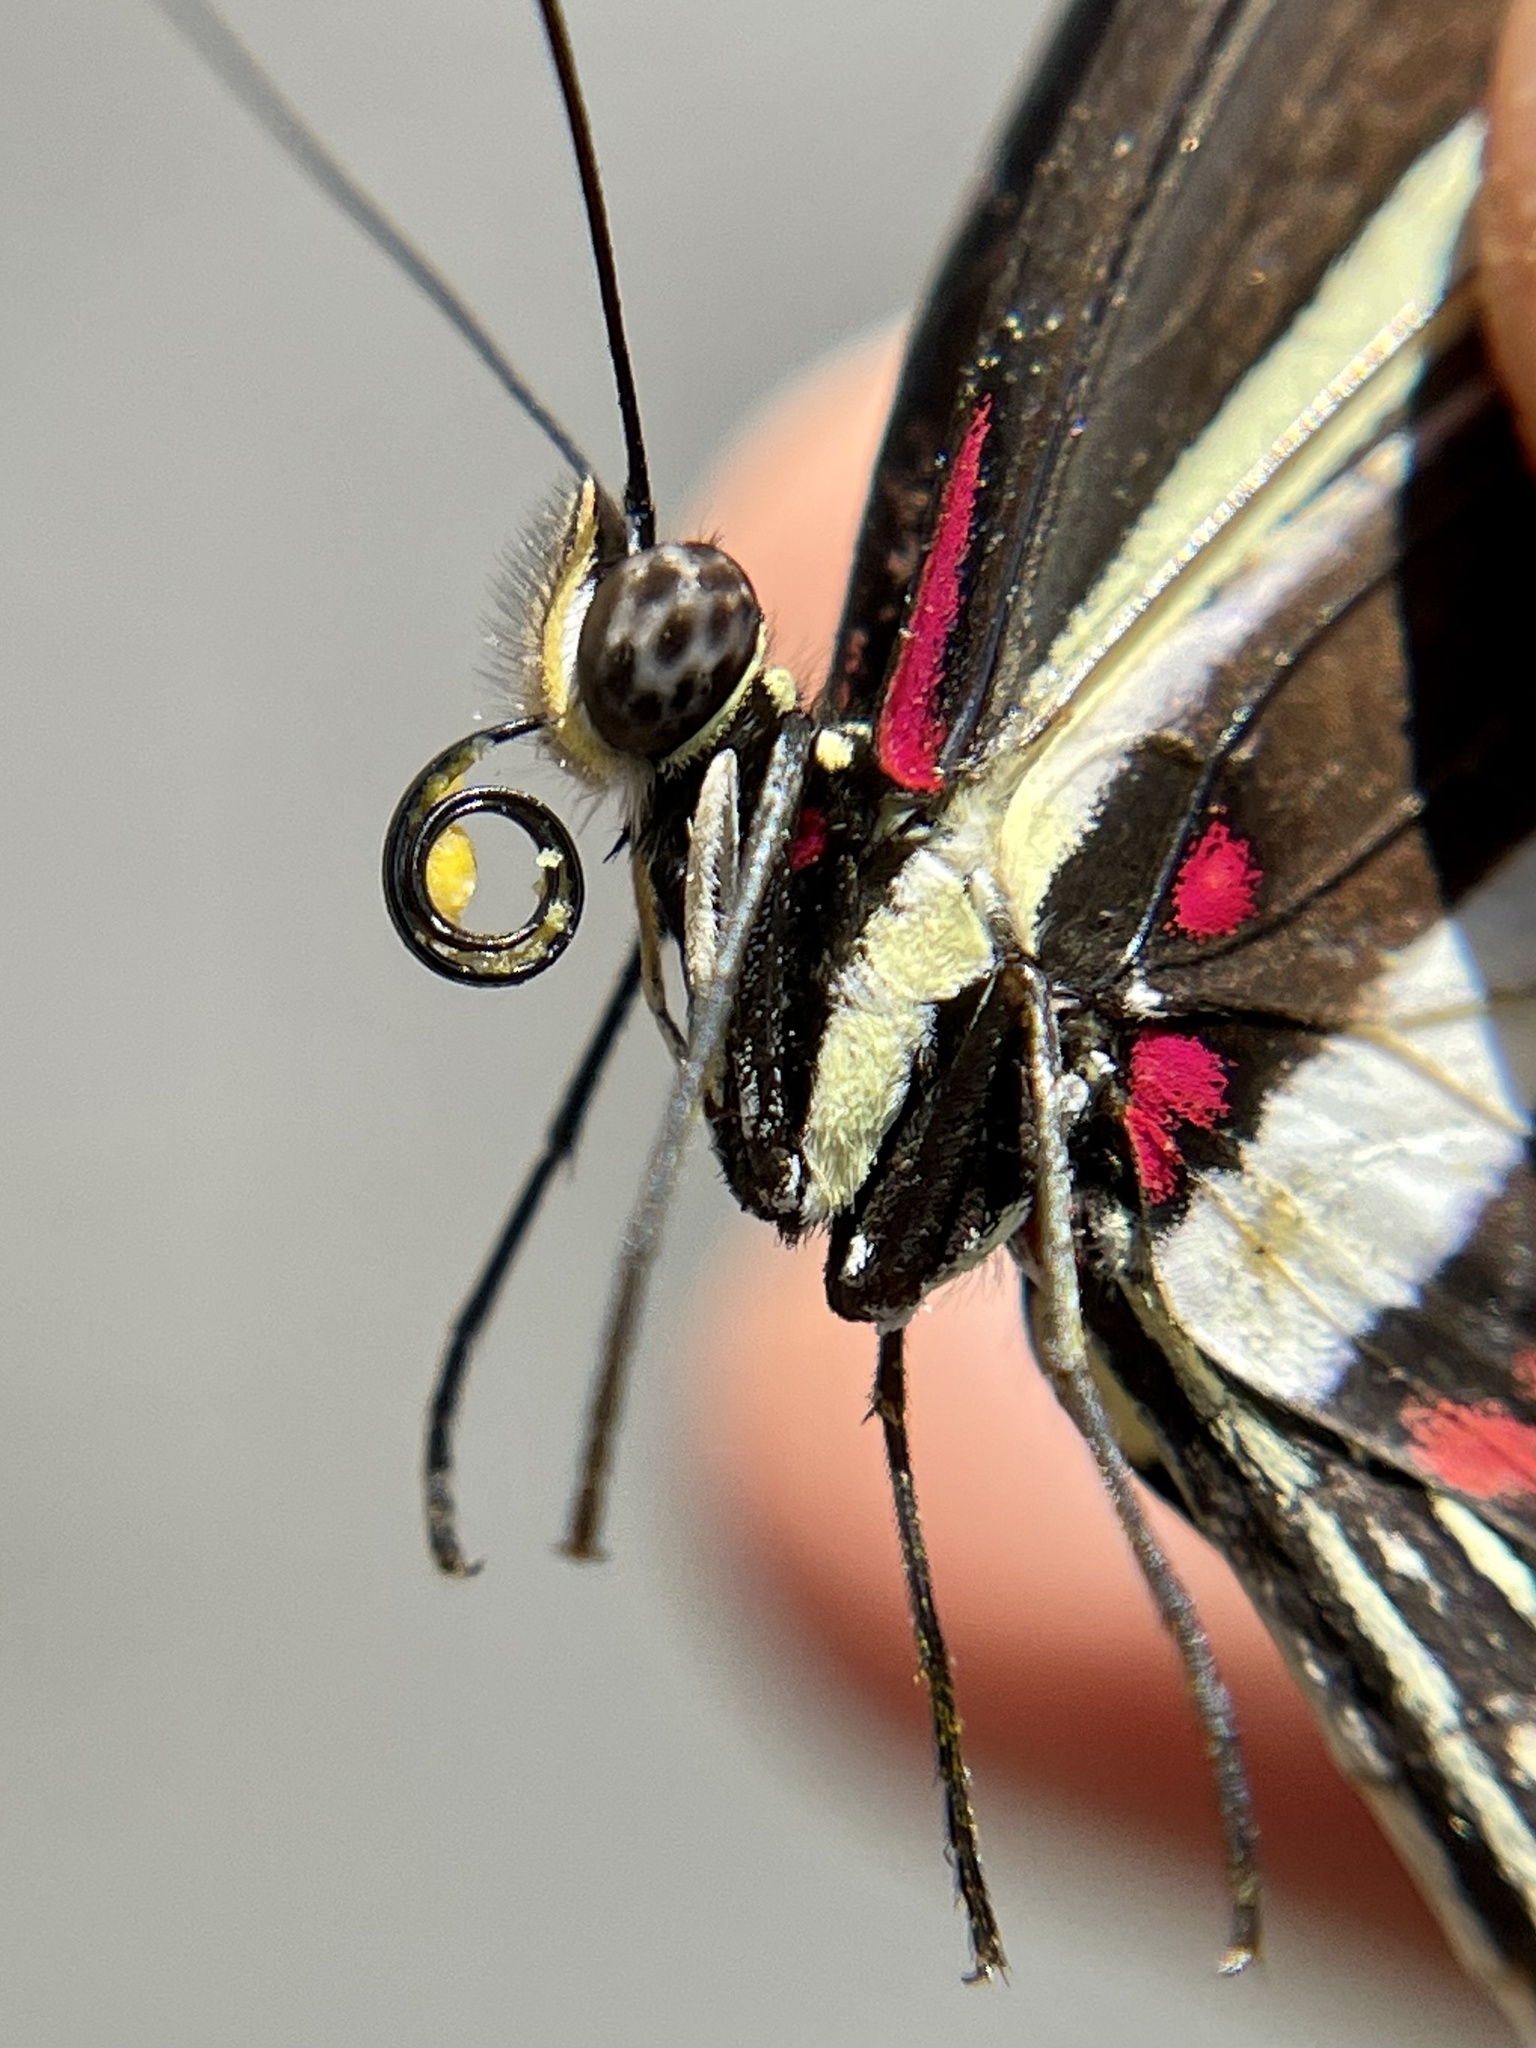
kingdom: Animalia
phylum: Arthropoda
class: Insecta
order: Lepidoptera
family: Nymphalidae
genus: Heliconius
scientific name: Heliconius charithonia
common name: Zebra long wing
